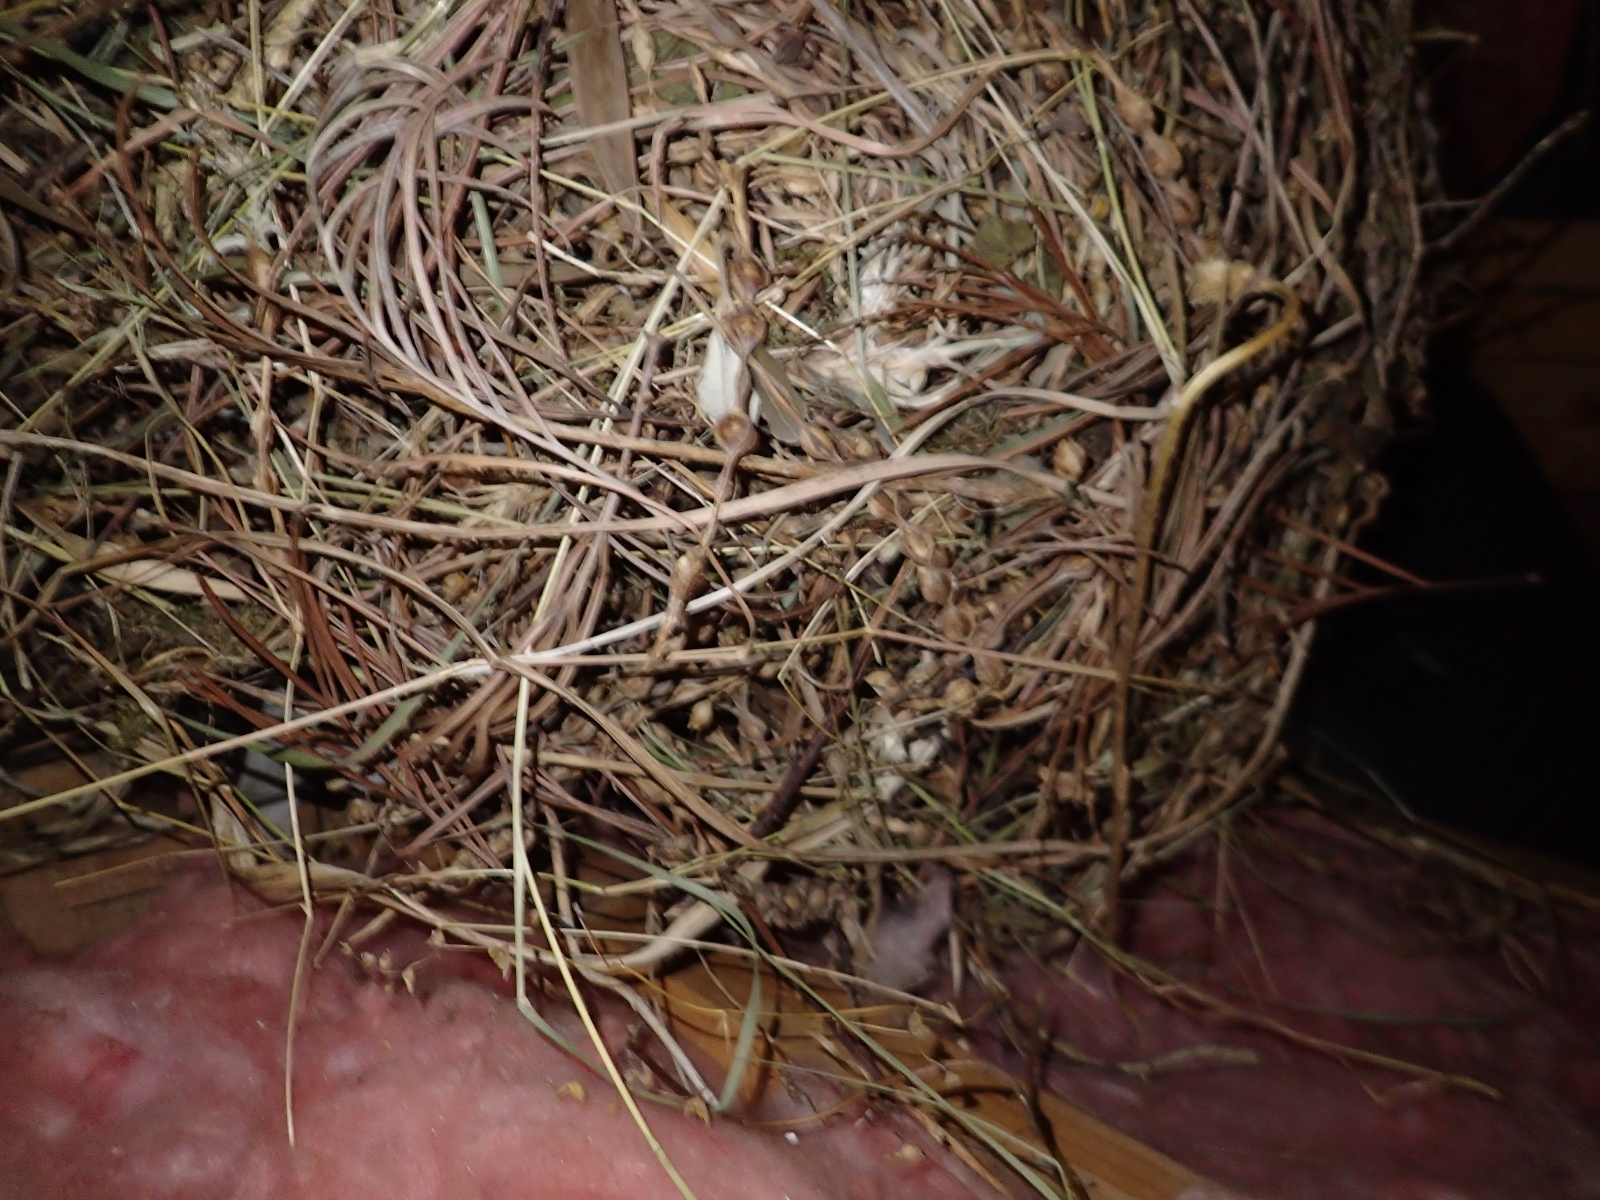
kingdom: Animalia
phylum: Chordata
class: Aves
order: Passeriformes
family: Passeridae
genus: Passer
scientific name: Passer domesticus
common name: House sparrow
